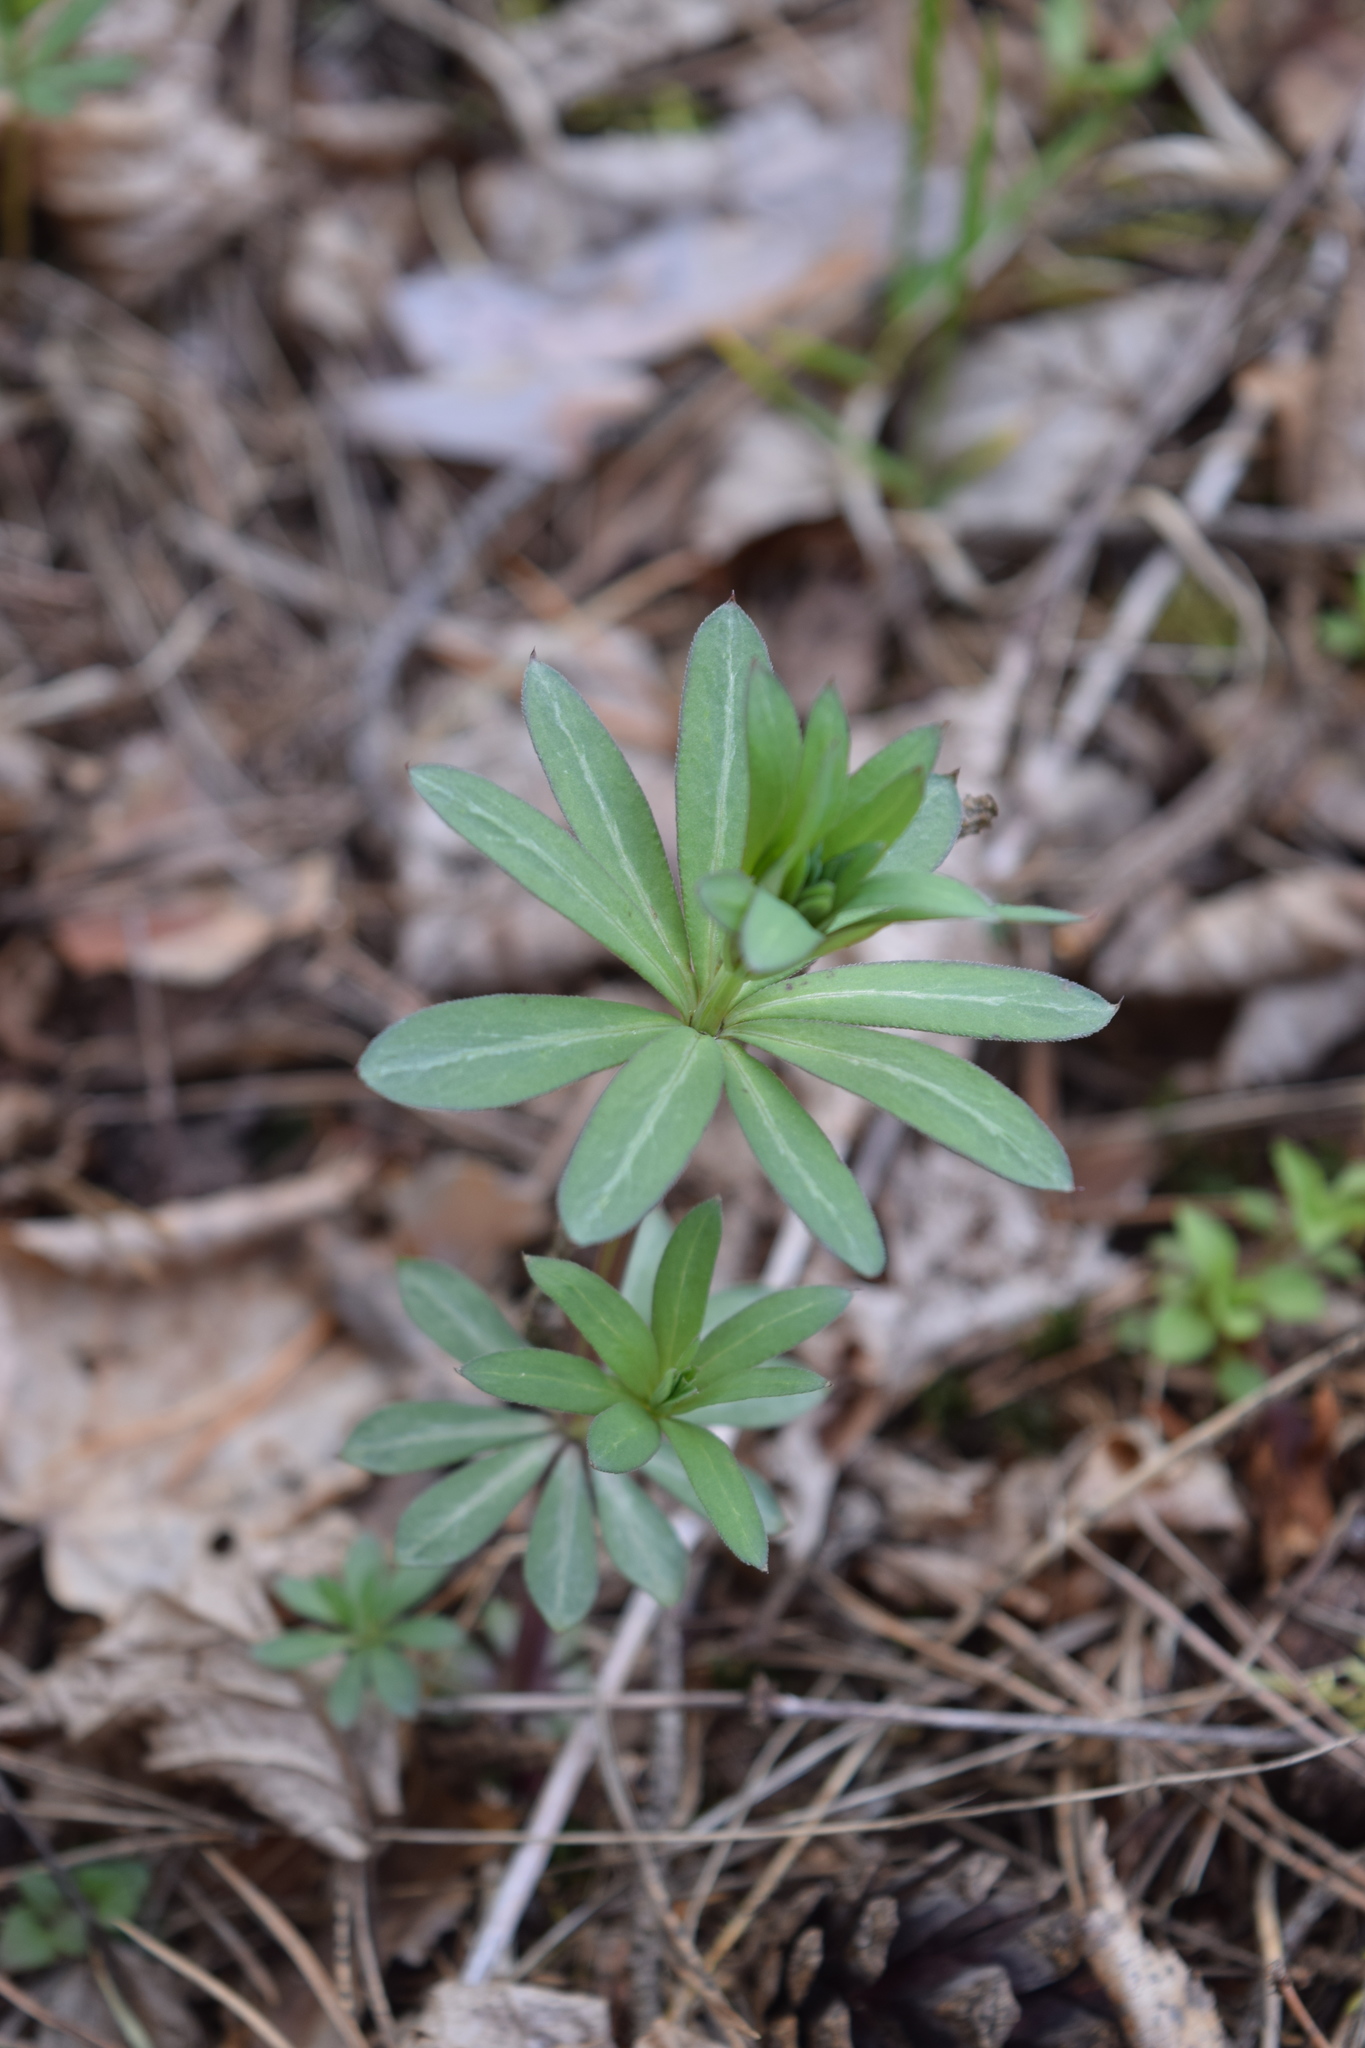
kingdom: Plantae
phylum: Tracheophyta
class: Magnoliopsida
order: Gentianales
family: Rubiaceae
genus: Galium
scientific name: Galium intermedium
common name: Bedstraw
